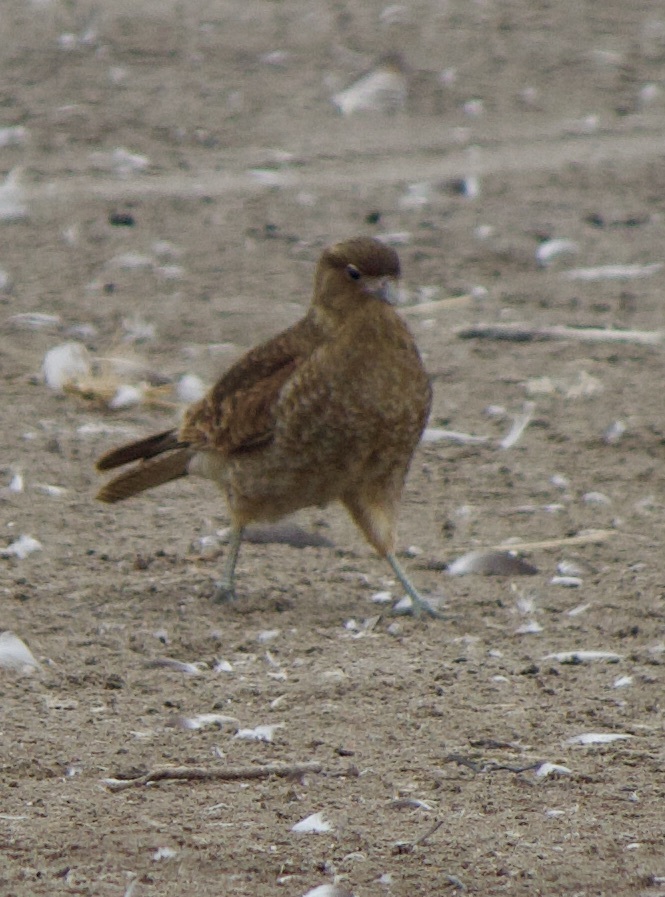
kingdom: Animalia
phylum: Chordata
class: Aves
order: Falconiformes
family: Falconidae
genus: Daptrius
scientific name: Daptrius
